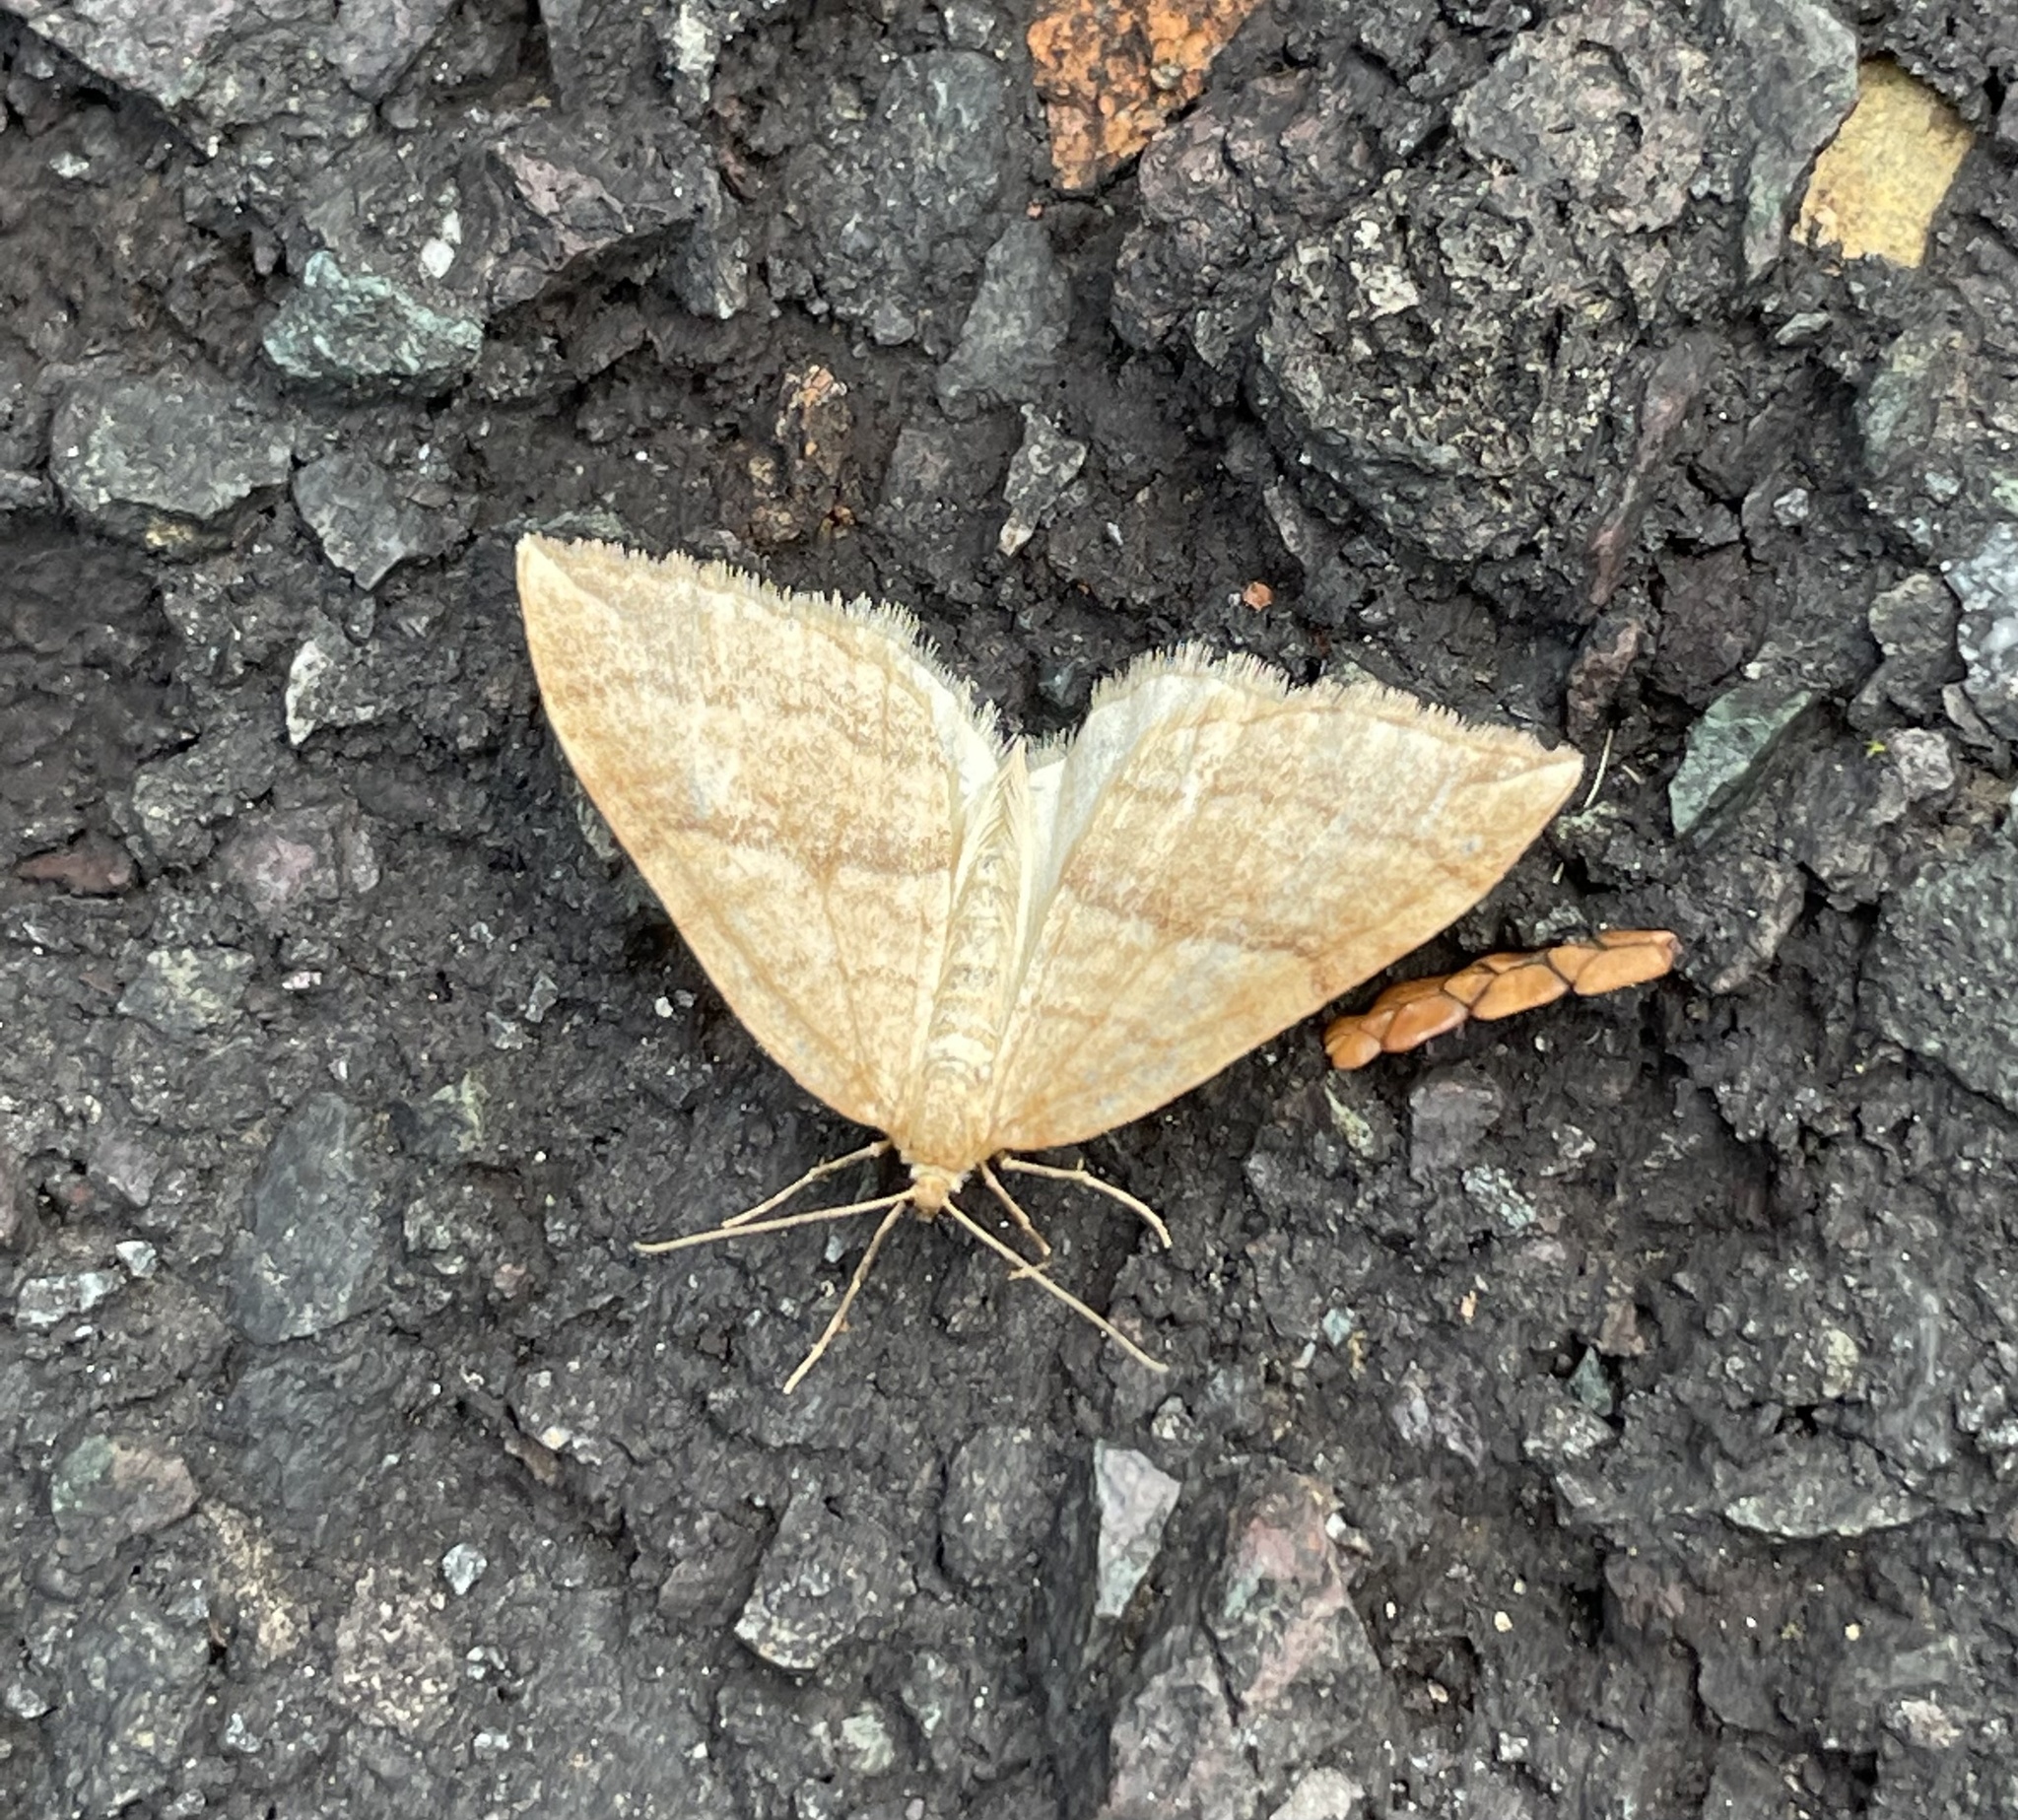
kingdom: Animalia
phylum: Arthropoda
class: Insecta
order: Lepidoptera
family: Geometridae
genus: Nothoporinia
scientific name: Nothoporinia mediolineata
